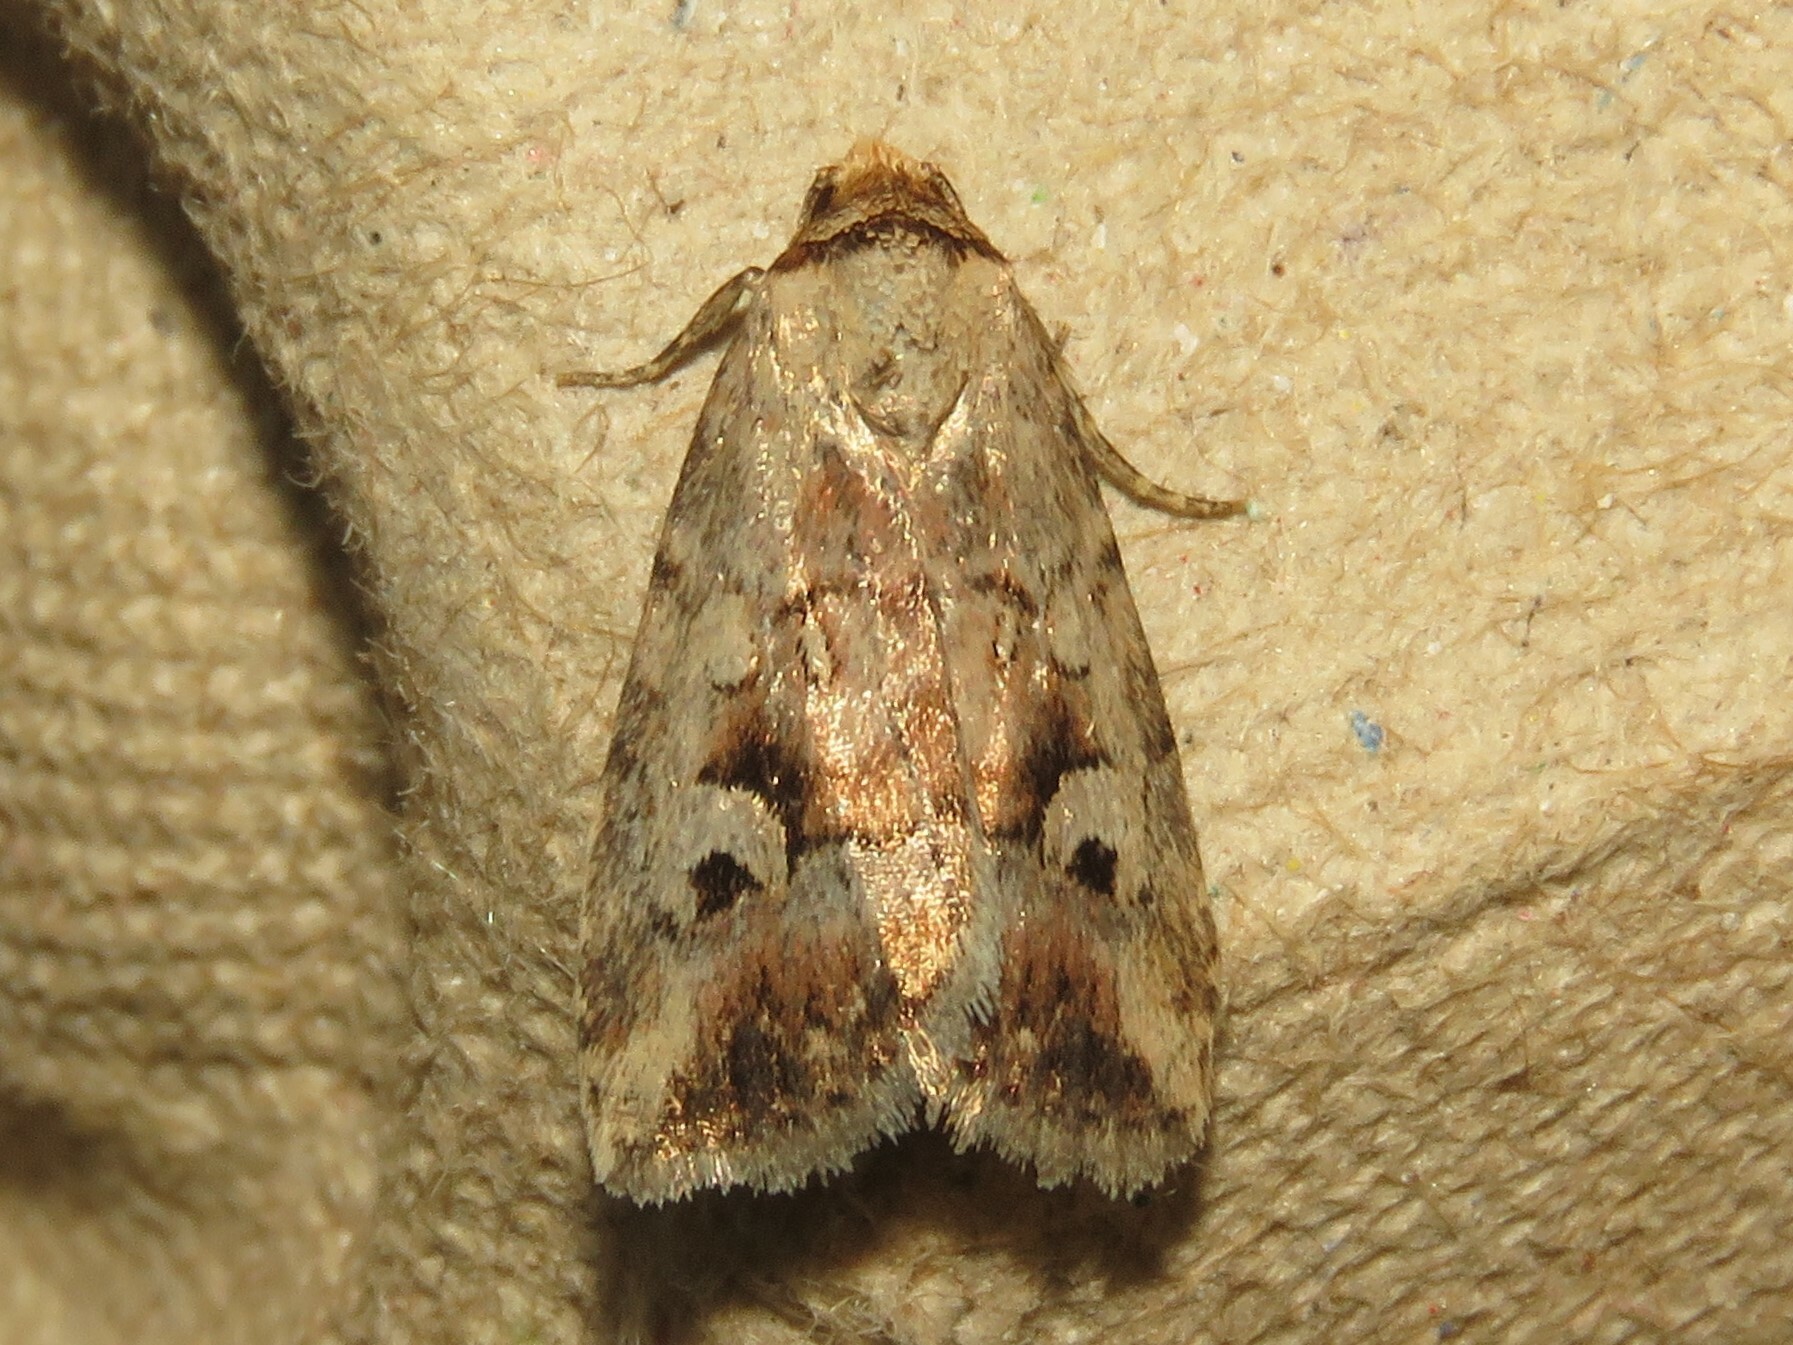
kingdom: Animalia
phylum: Arthropoda
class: Insecta
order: Lepidoptera
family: Noctuidae
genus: Elaphria
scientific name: Elaphria alapallida
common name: Pale-winged midget
